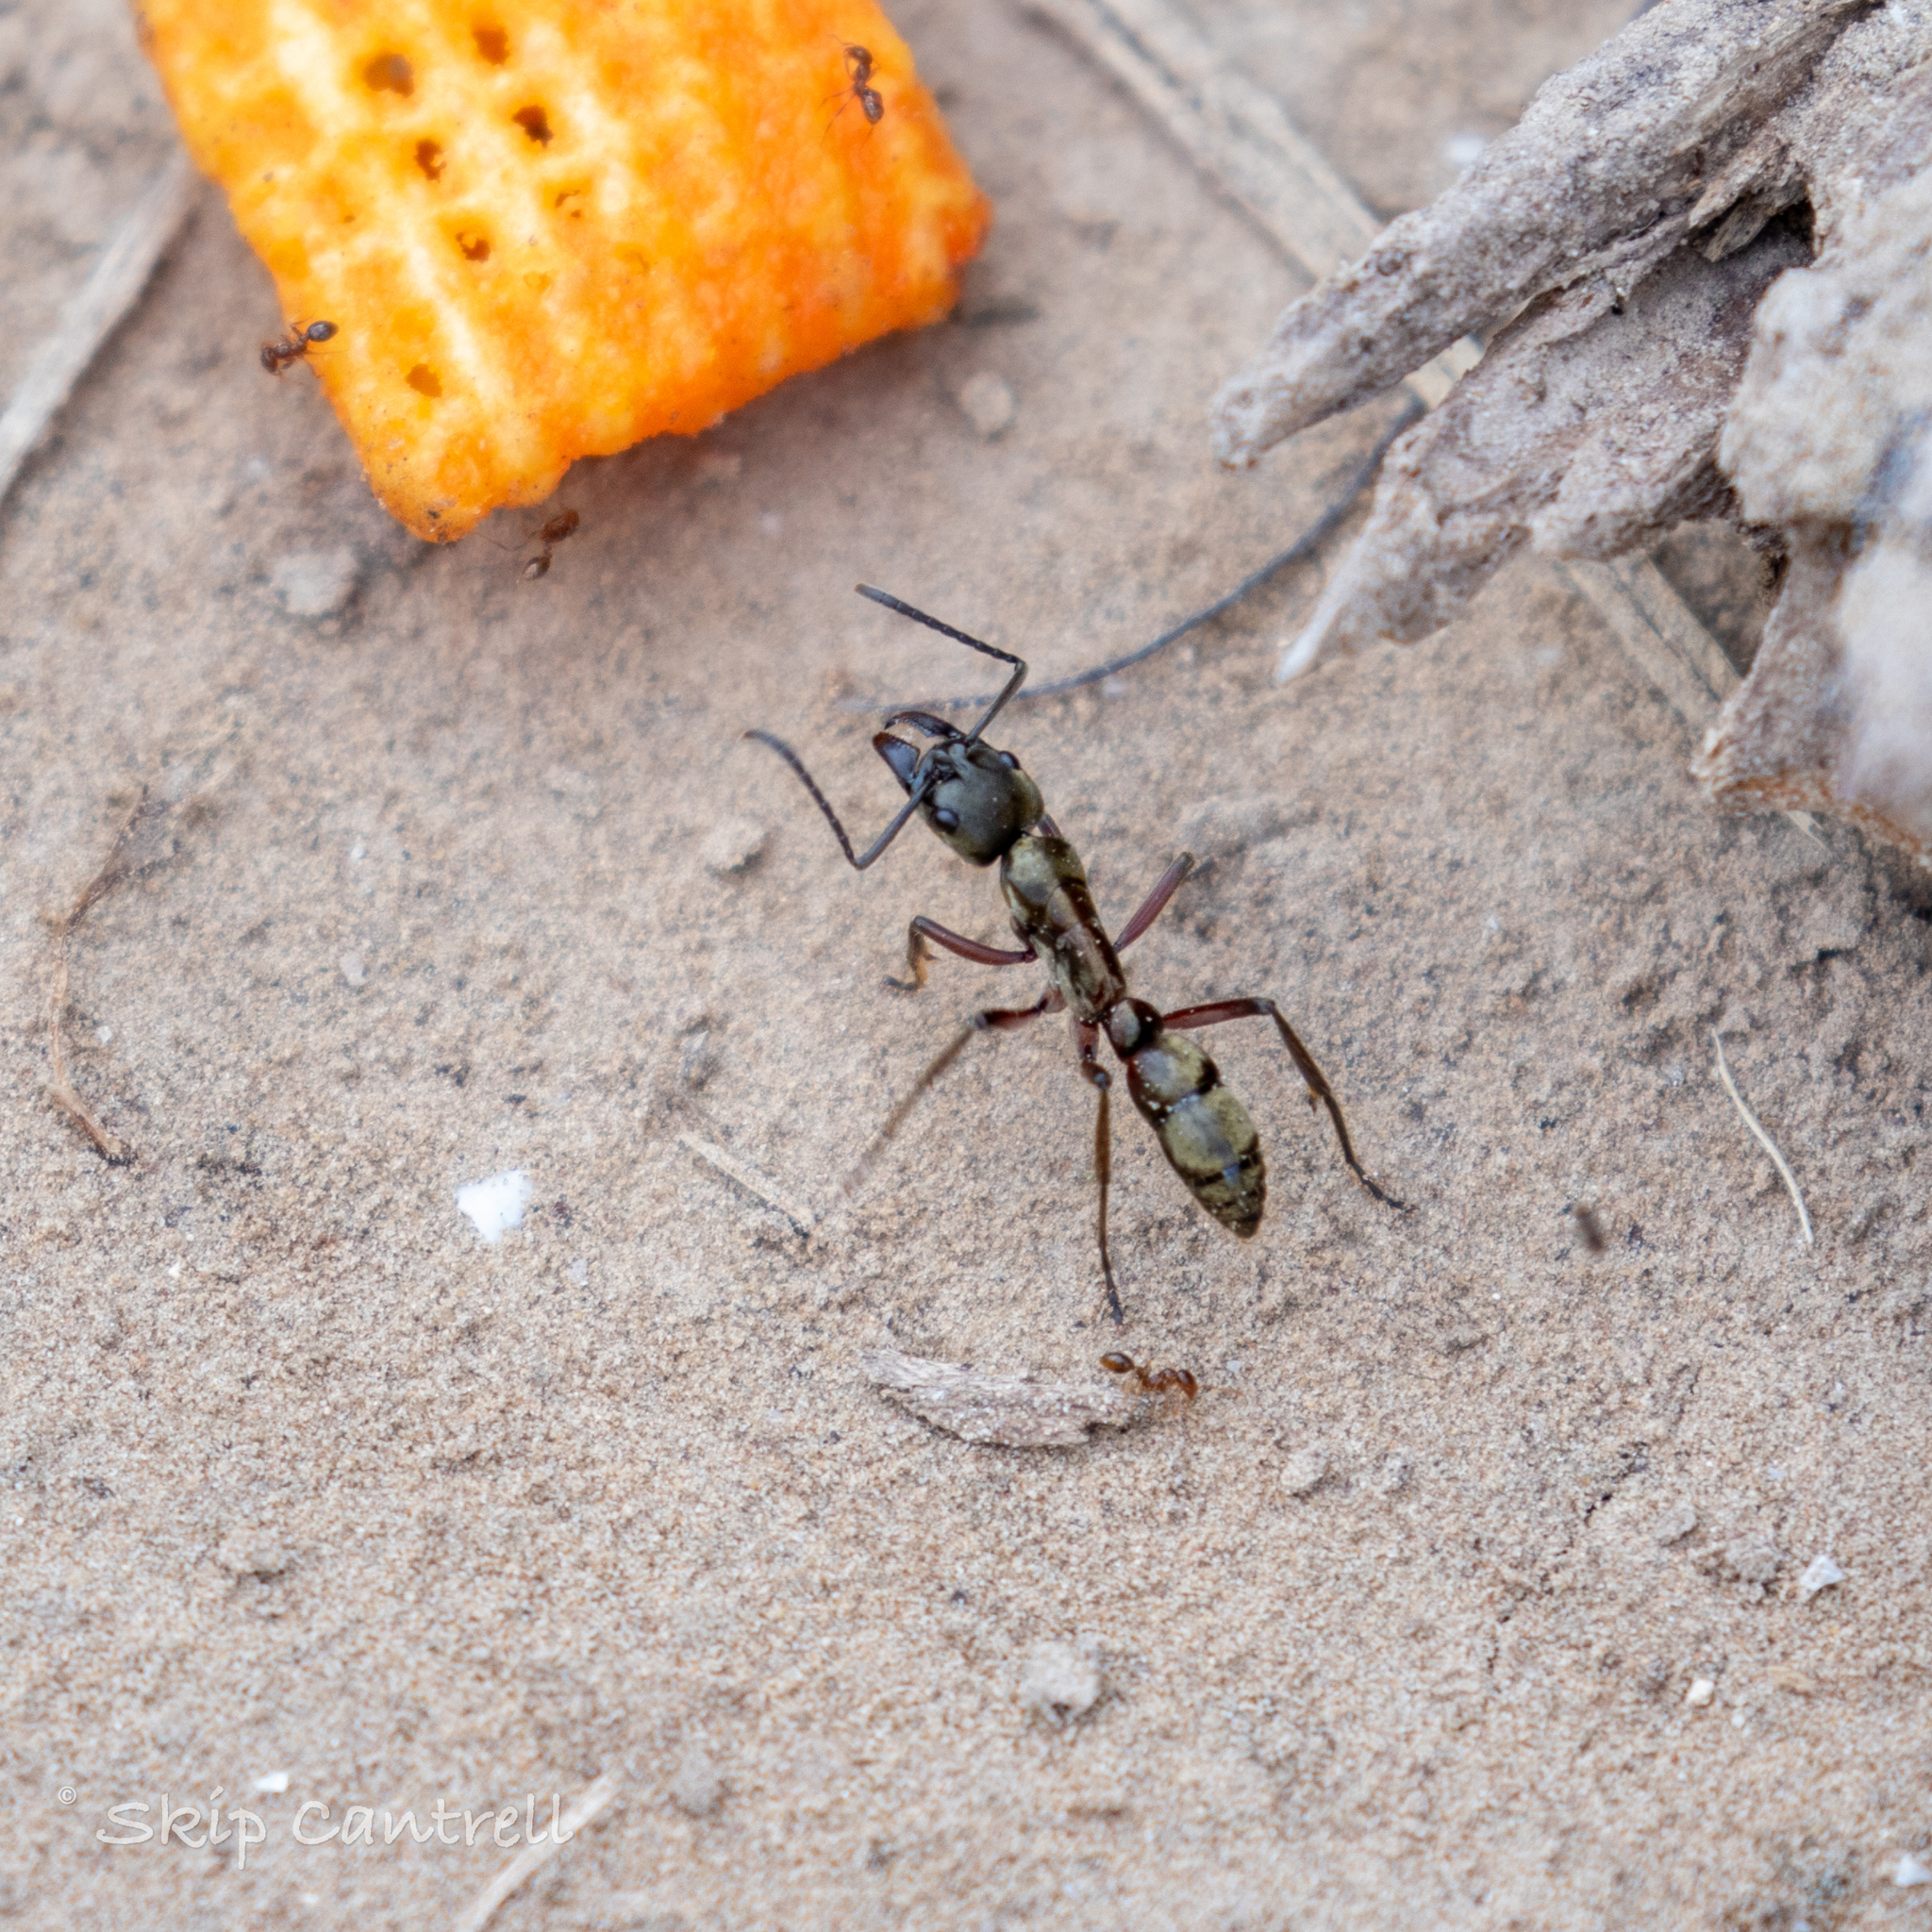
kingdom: Animalia
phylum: Arthropoda
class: Insecta
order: Hymenoptera
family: Formicidae
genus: Pachycondyla
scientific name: Pachycondyla villosa
